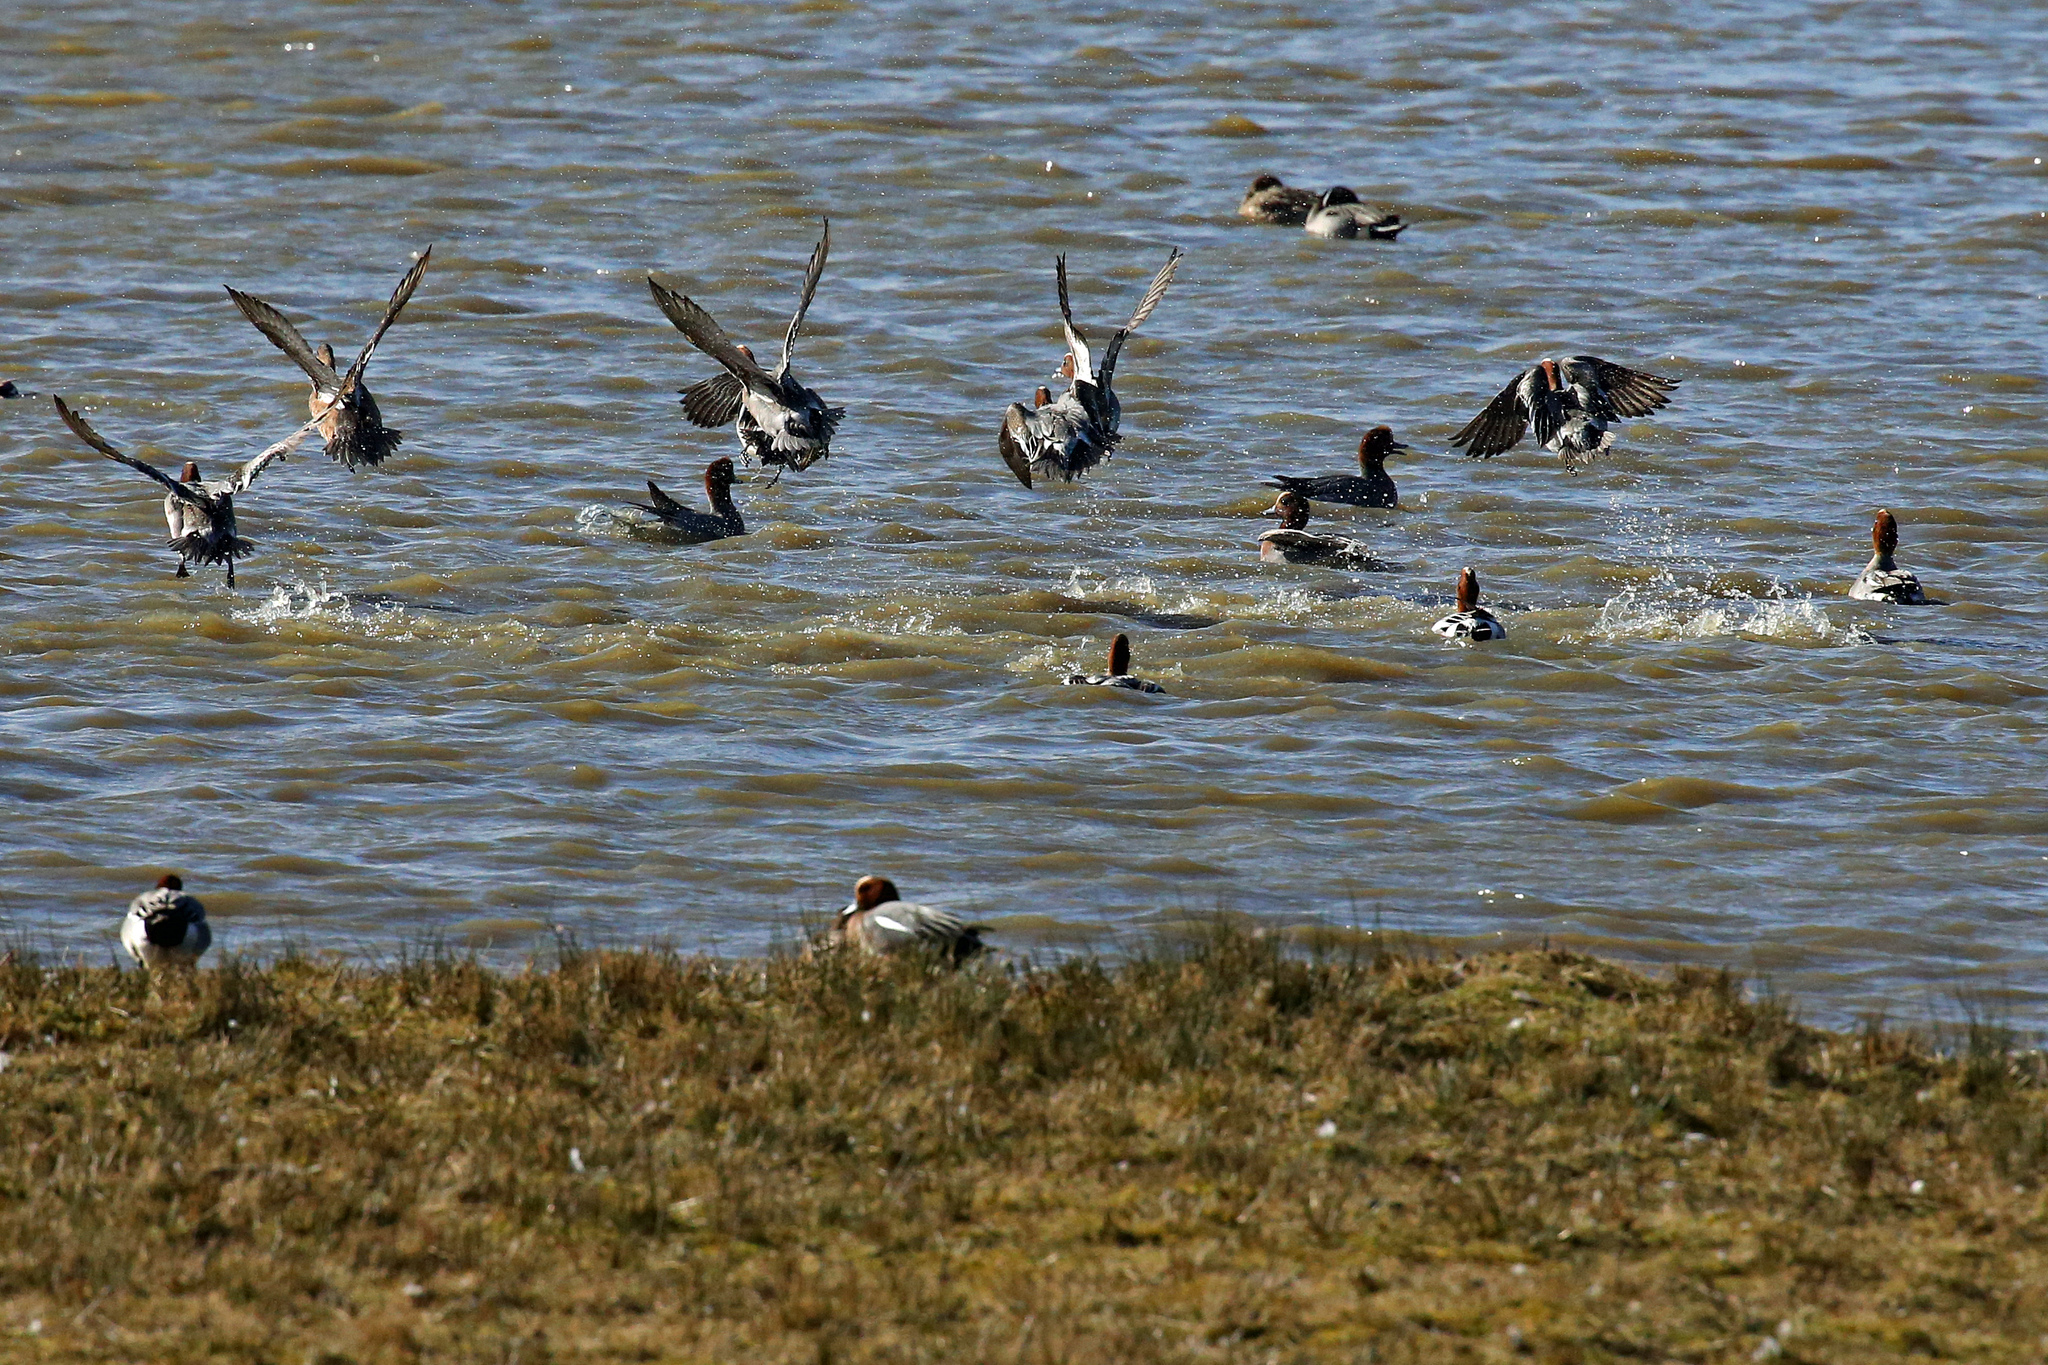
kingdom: Animalia
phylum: Chordata
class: Aves
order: Anseriformes
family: Anatidae
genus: Mareca
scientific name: Mareca penelope
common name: Eurasian wigeon
